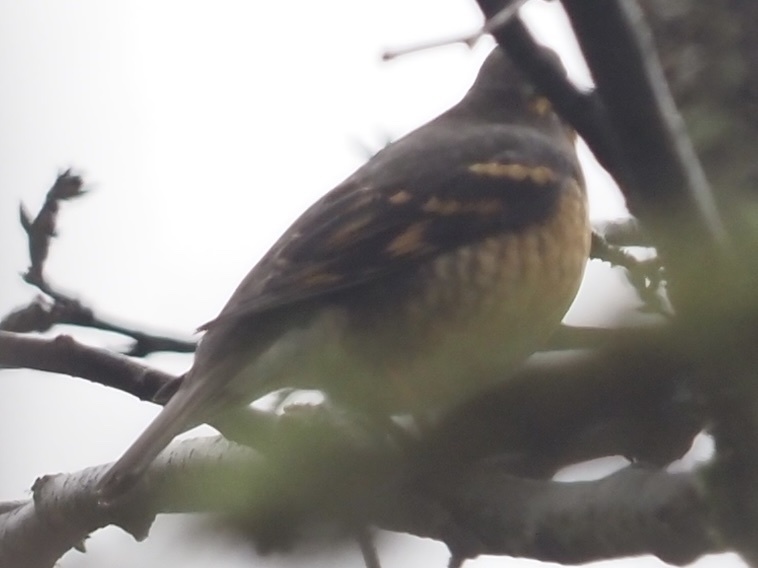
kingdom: Animalia
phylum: Chordata
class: Aves
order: Passeriformes
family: Turdidae
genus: Ixoreus
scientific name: Ixoreus naevius
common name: Varied thrush
